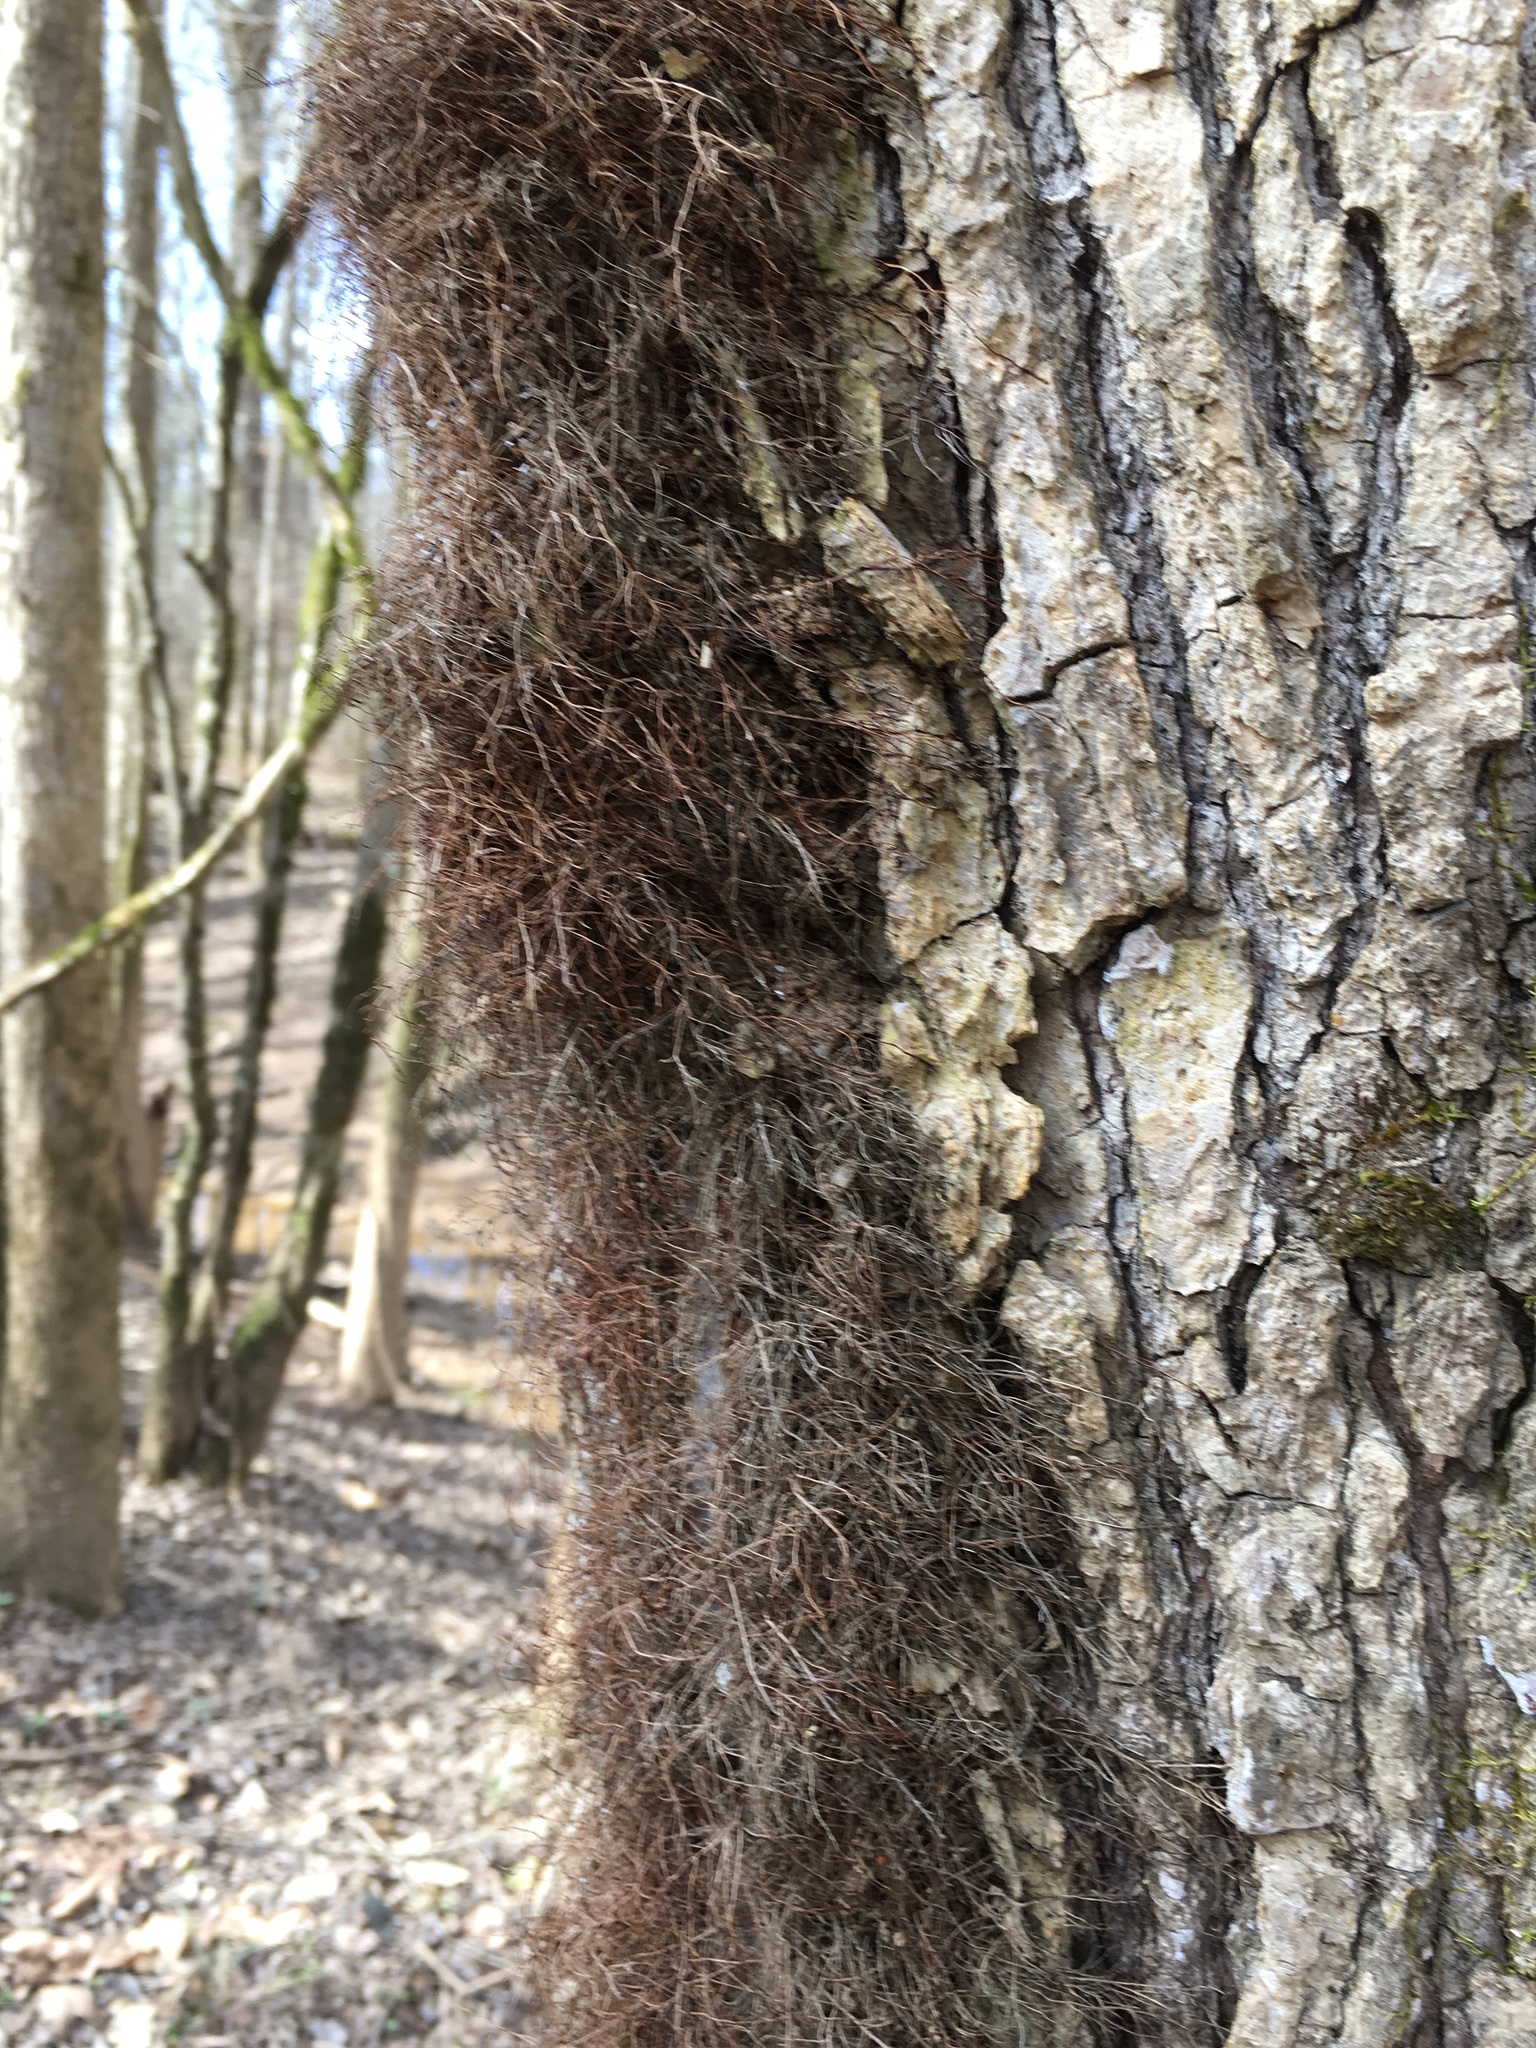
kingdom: Plantae
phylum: Tracheophyta
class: Magnoliopsida
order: Sapindales
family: Anacardiaceae
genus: Toxicodendron
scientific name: Toxicodendron radicans
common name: Poison ivy
